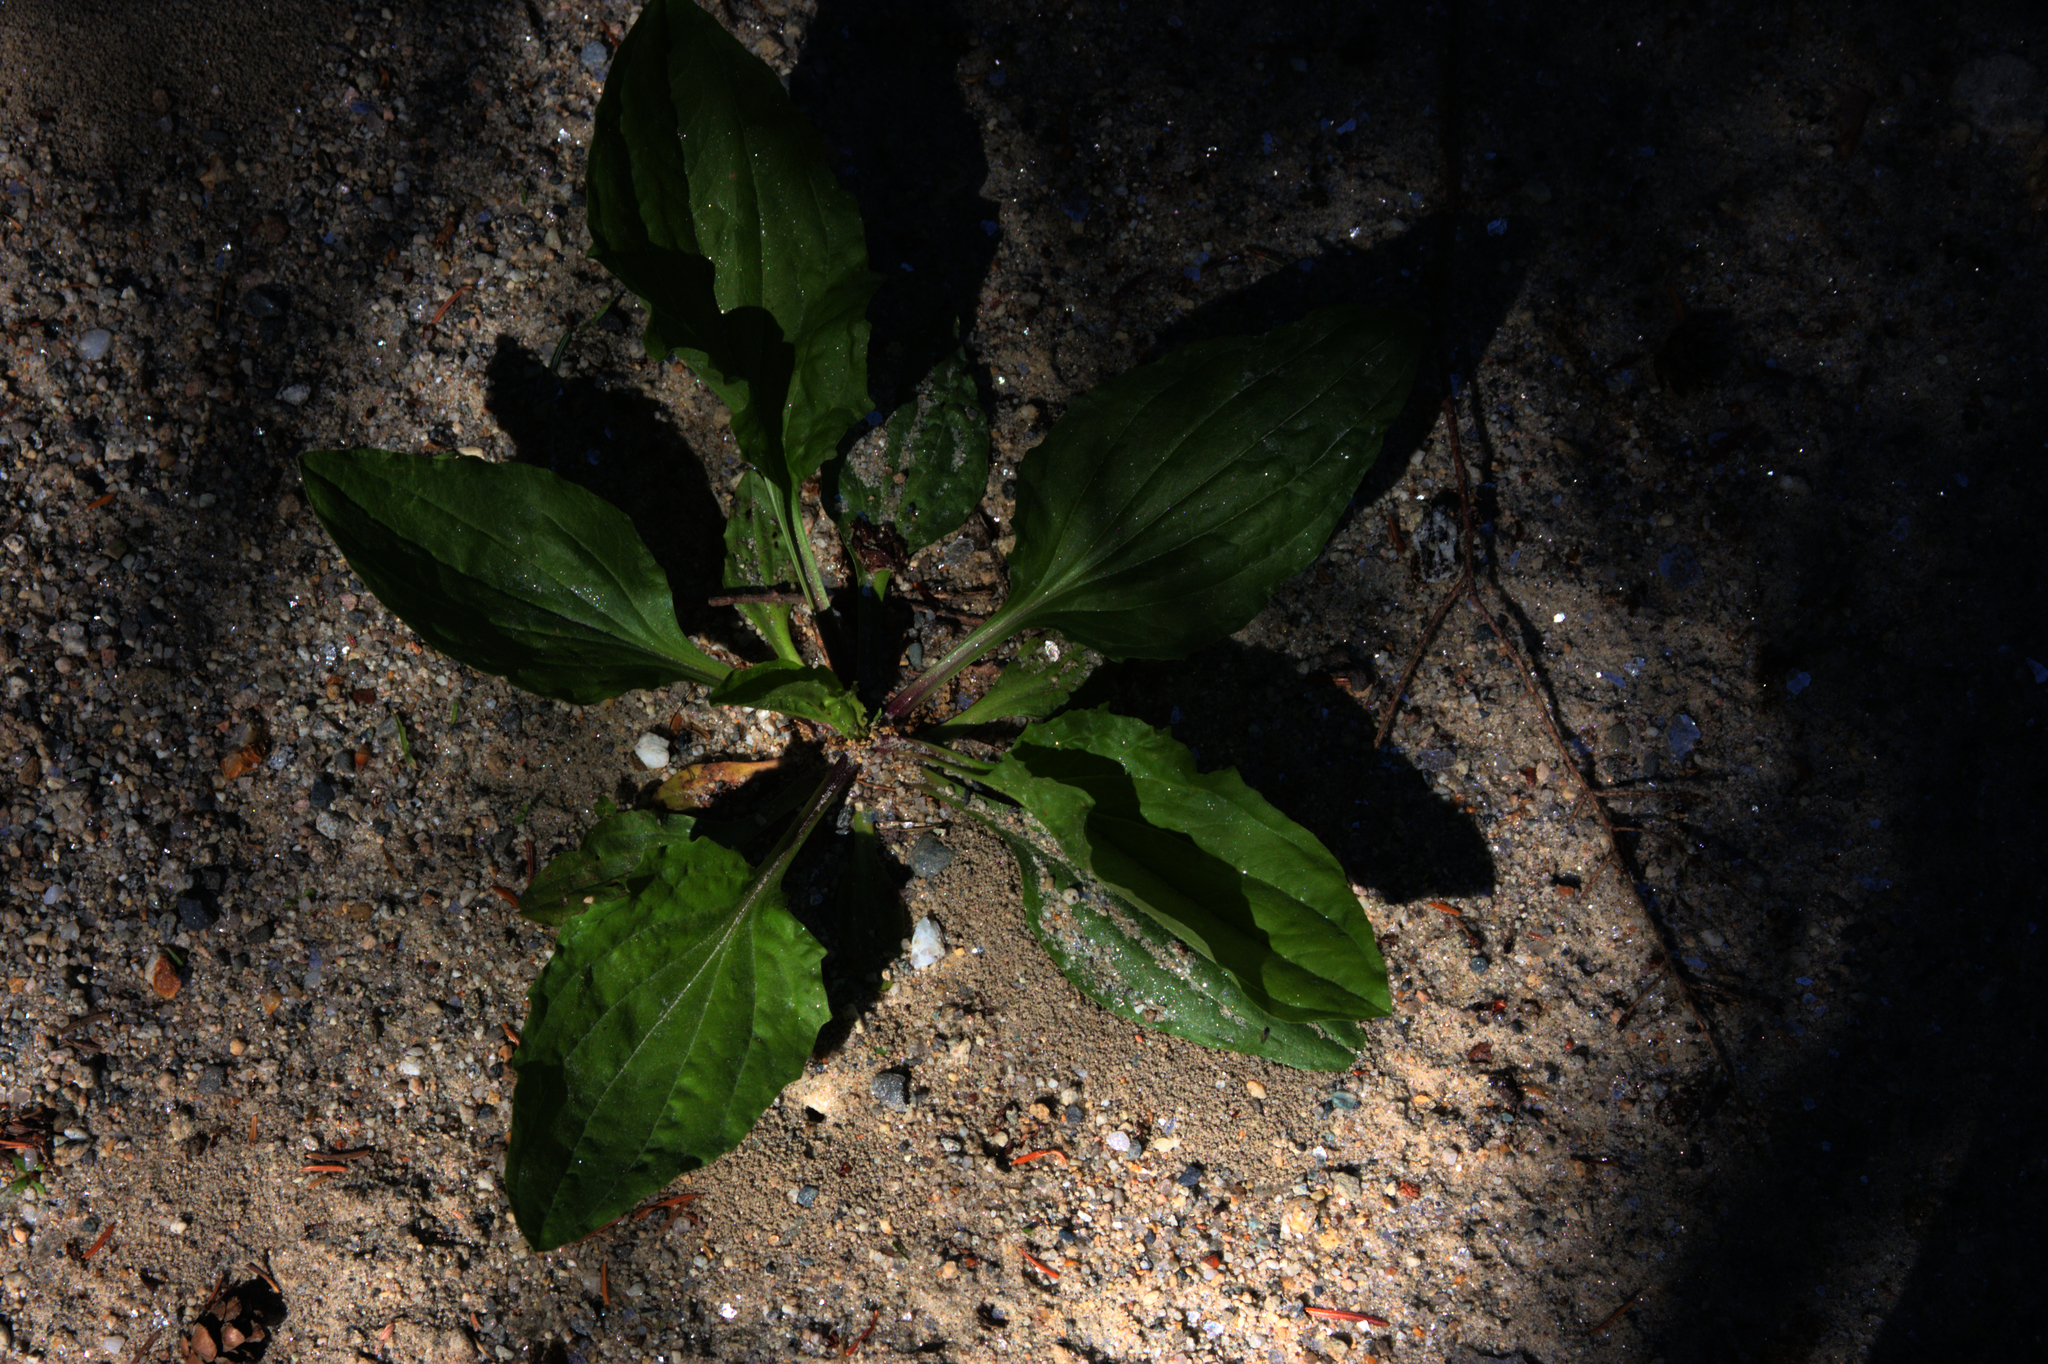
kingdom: Plantae
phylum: Tracheophyta
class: Magnoliopsida
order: Lamiales
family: Plantaginaceae
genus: Plantago
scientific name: Plantago rugelii
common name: American plantain
